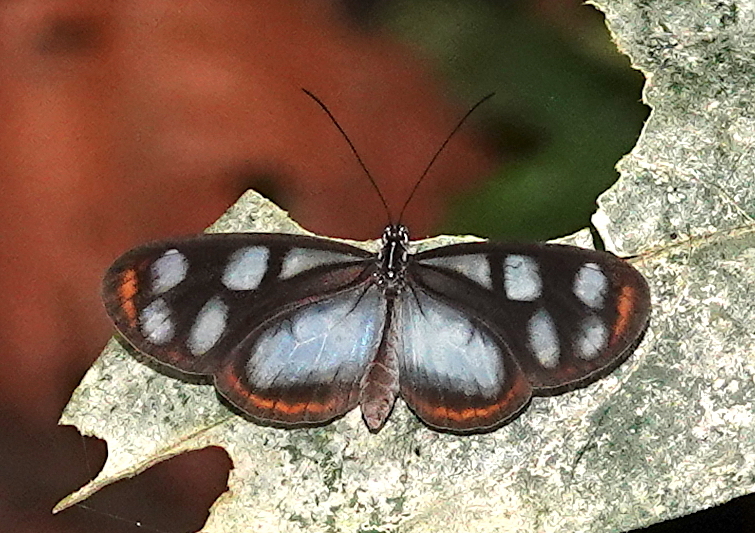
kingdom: Animalia
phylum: Arthropoda
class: Insecta
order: Lepidoptera
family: Nymphalidae
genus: Oleria
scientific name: Oleria onega
